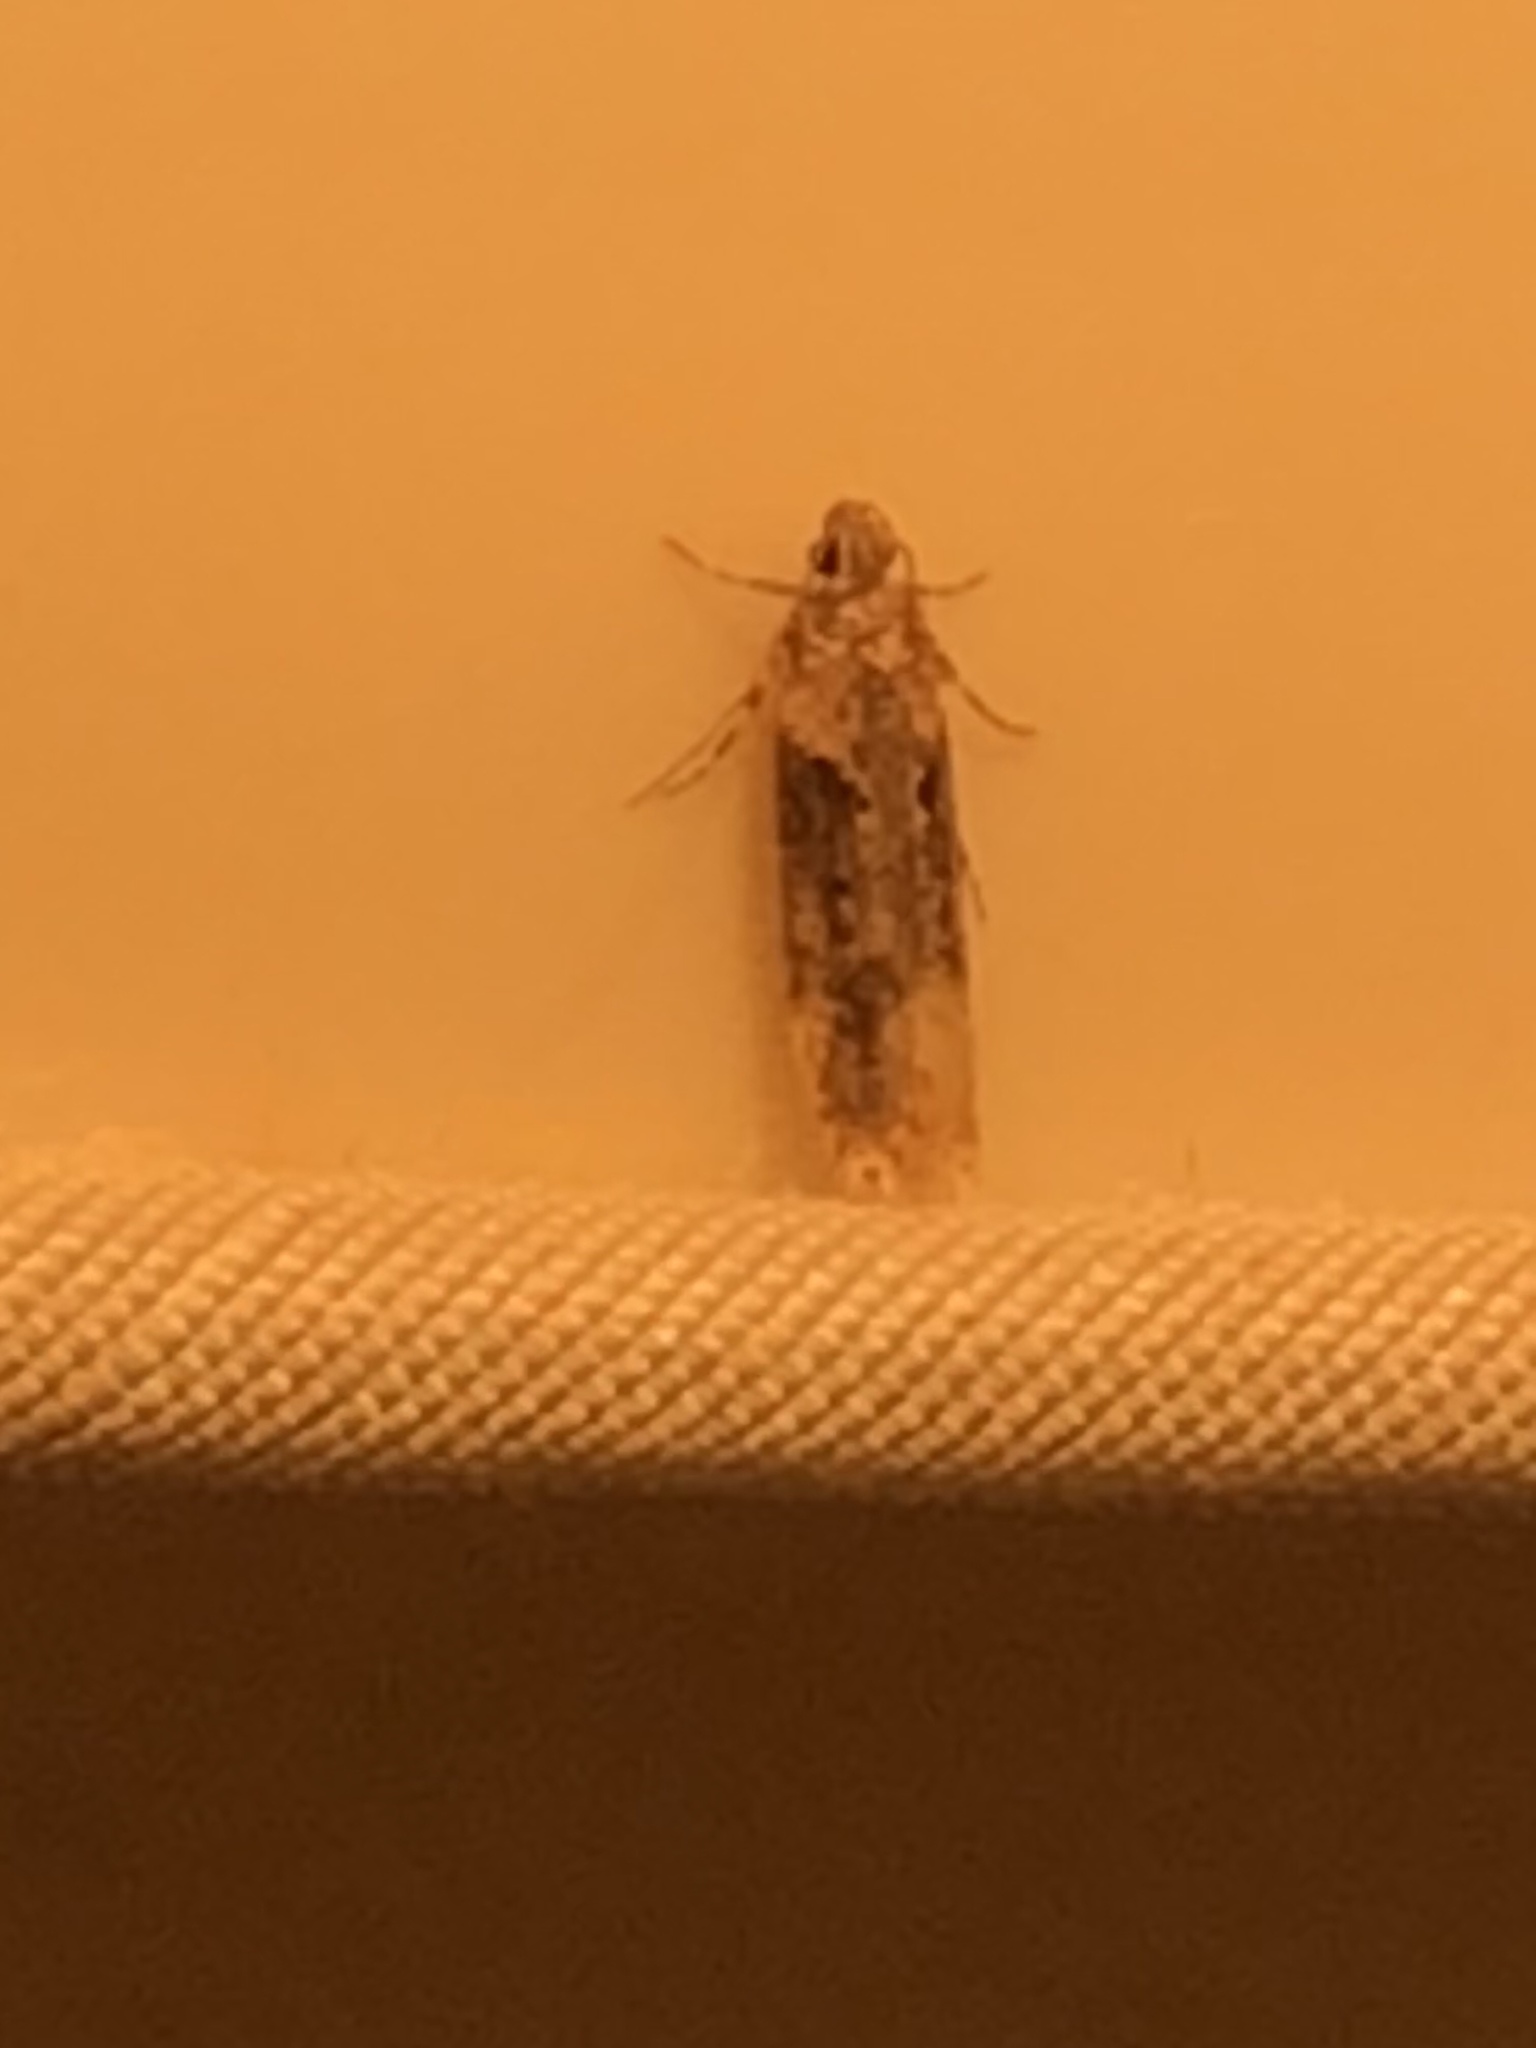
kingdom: Animalia
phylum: Arthropoda
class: Insecta
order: Lepidoptera
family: Gelechiidae
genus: Chionodes
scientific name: Chionodes mediofuscella
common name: Black-smudged chionodes moth
